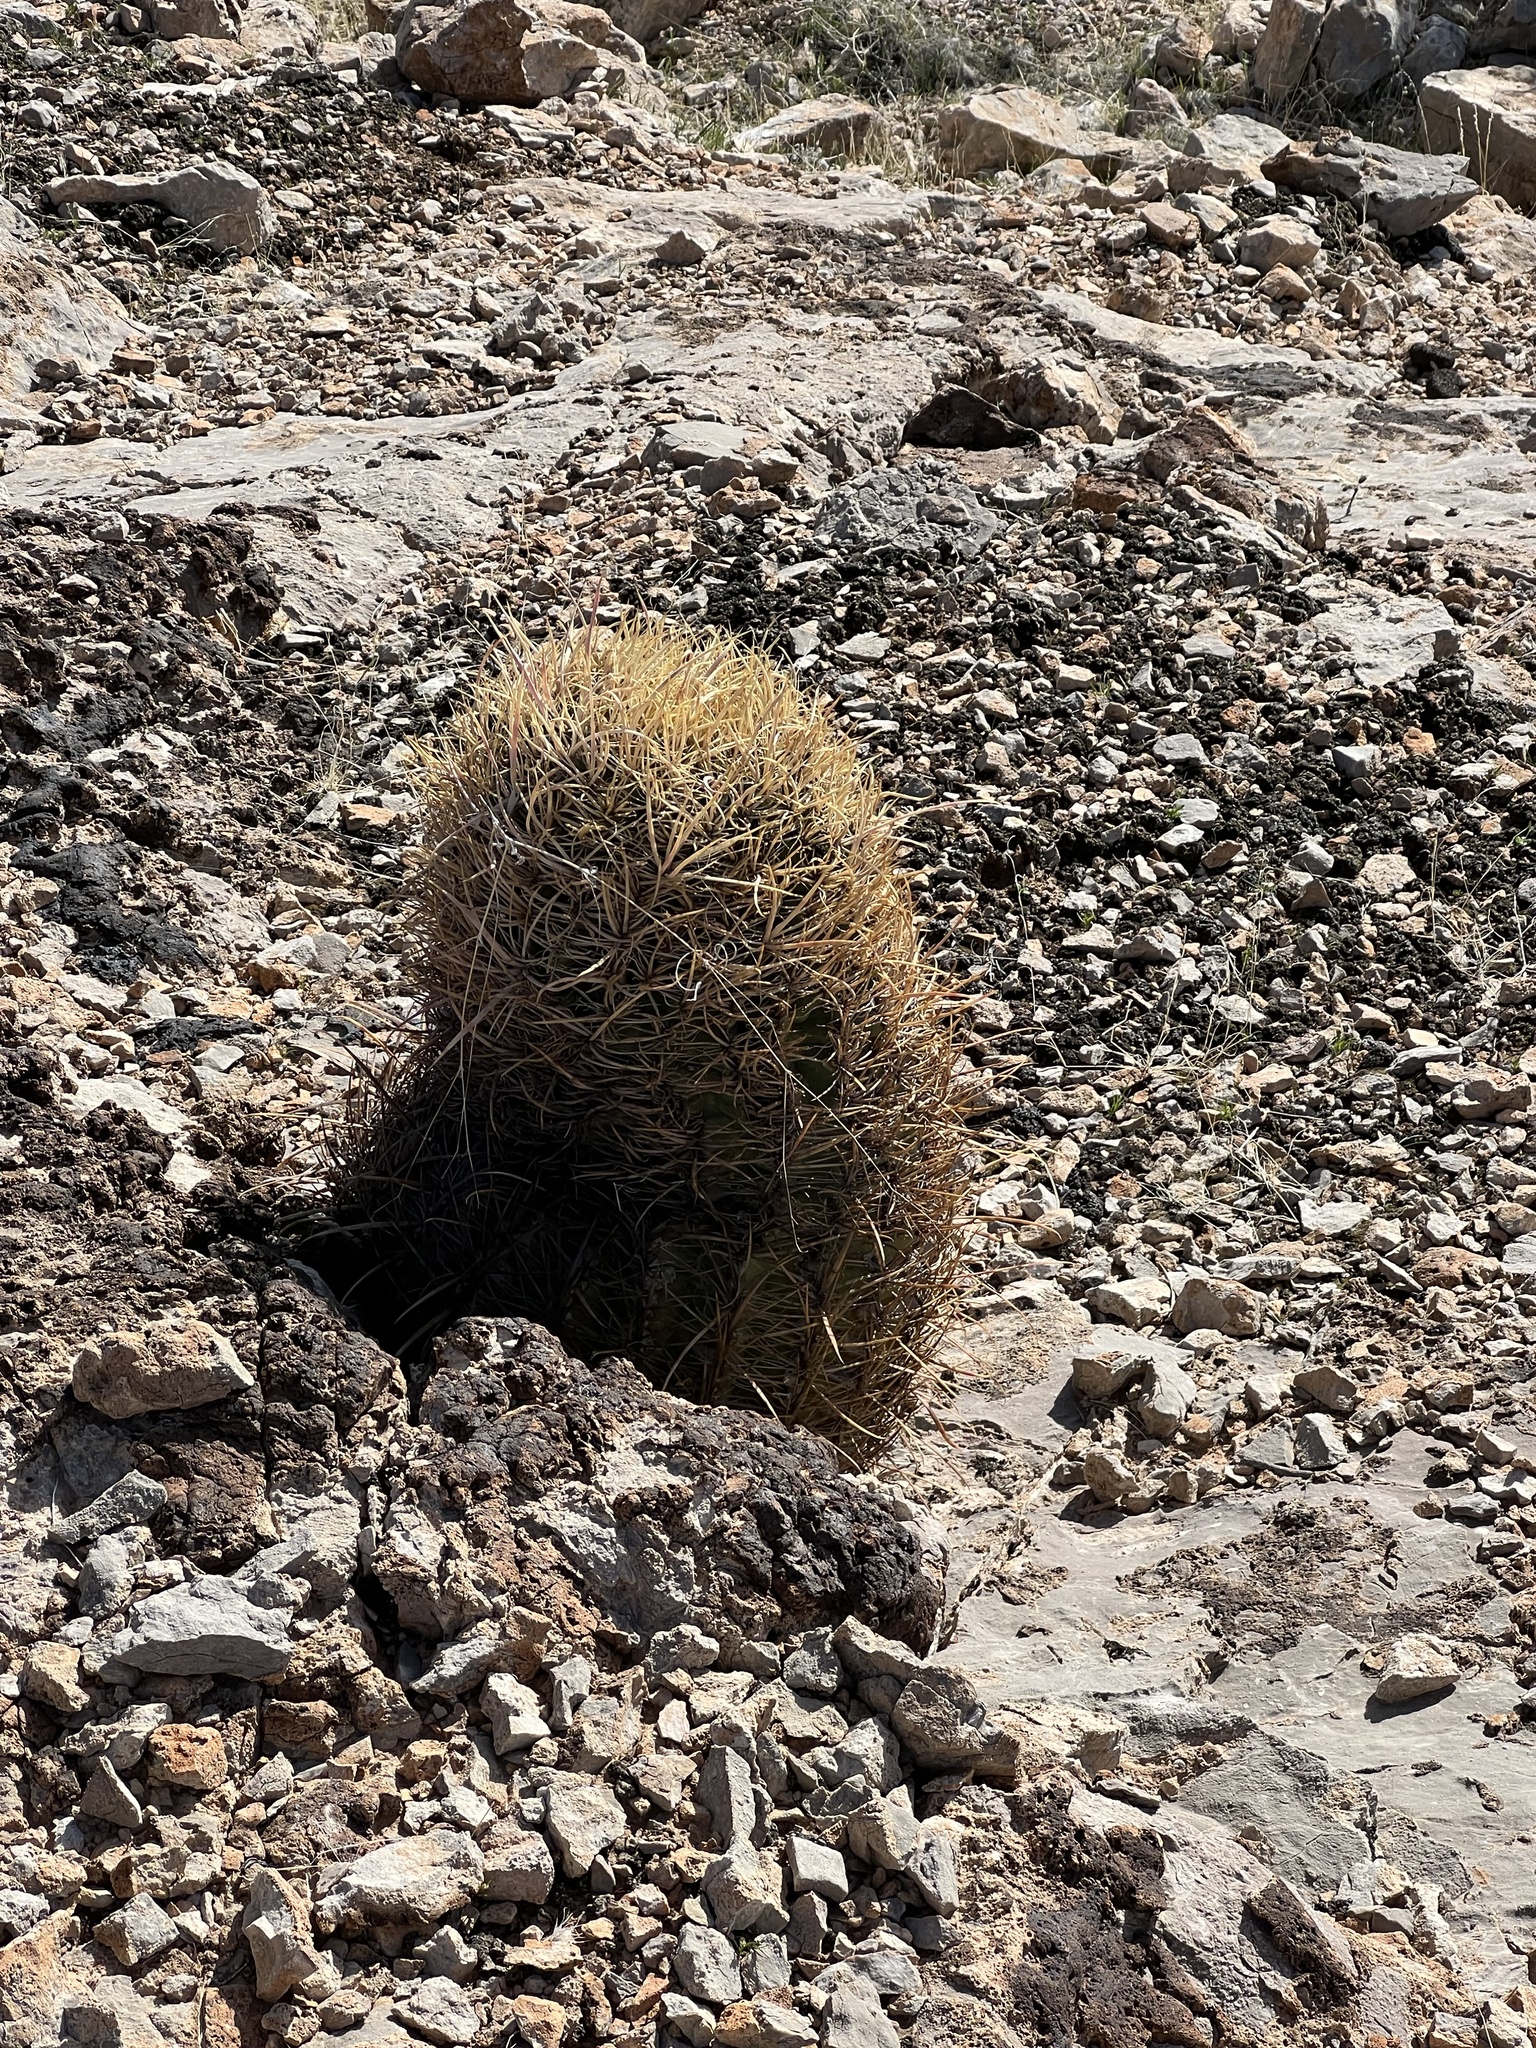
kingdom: Plantae
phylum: Tracheophyta
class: Magnoliopsida
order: Caryophyllales
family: Cactaceae
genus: Ferocactus
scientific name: Ferocactus cylindraceus
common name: California barrel cactus
